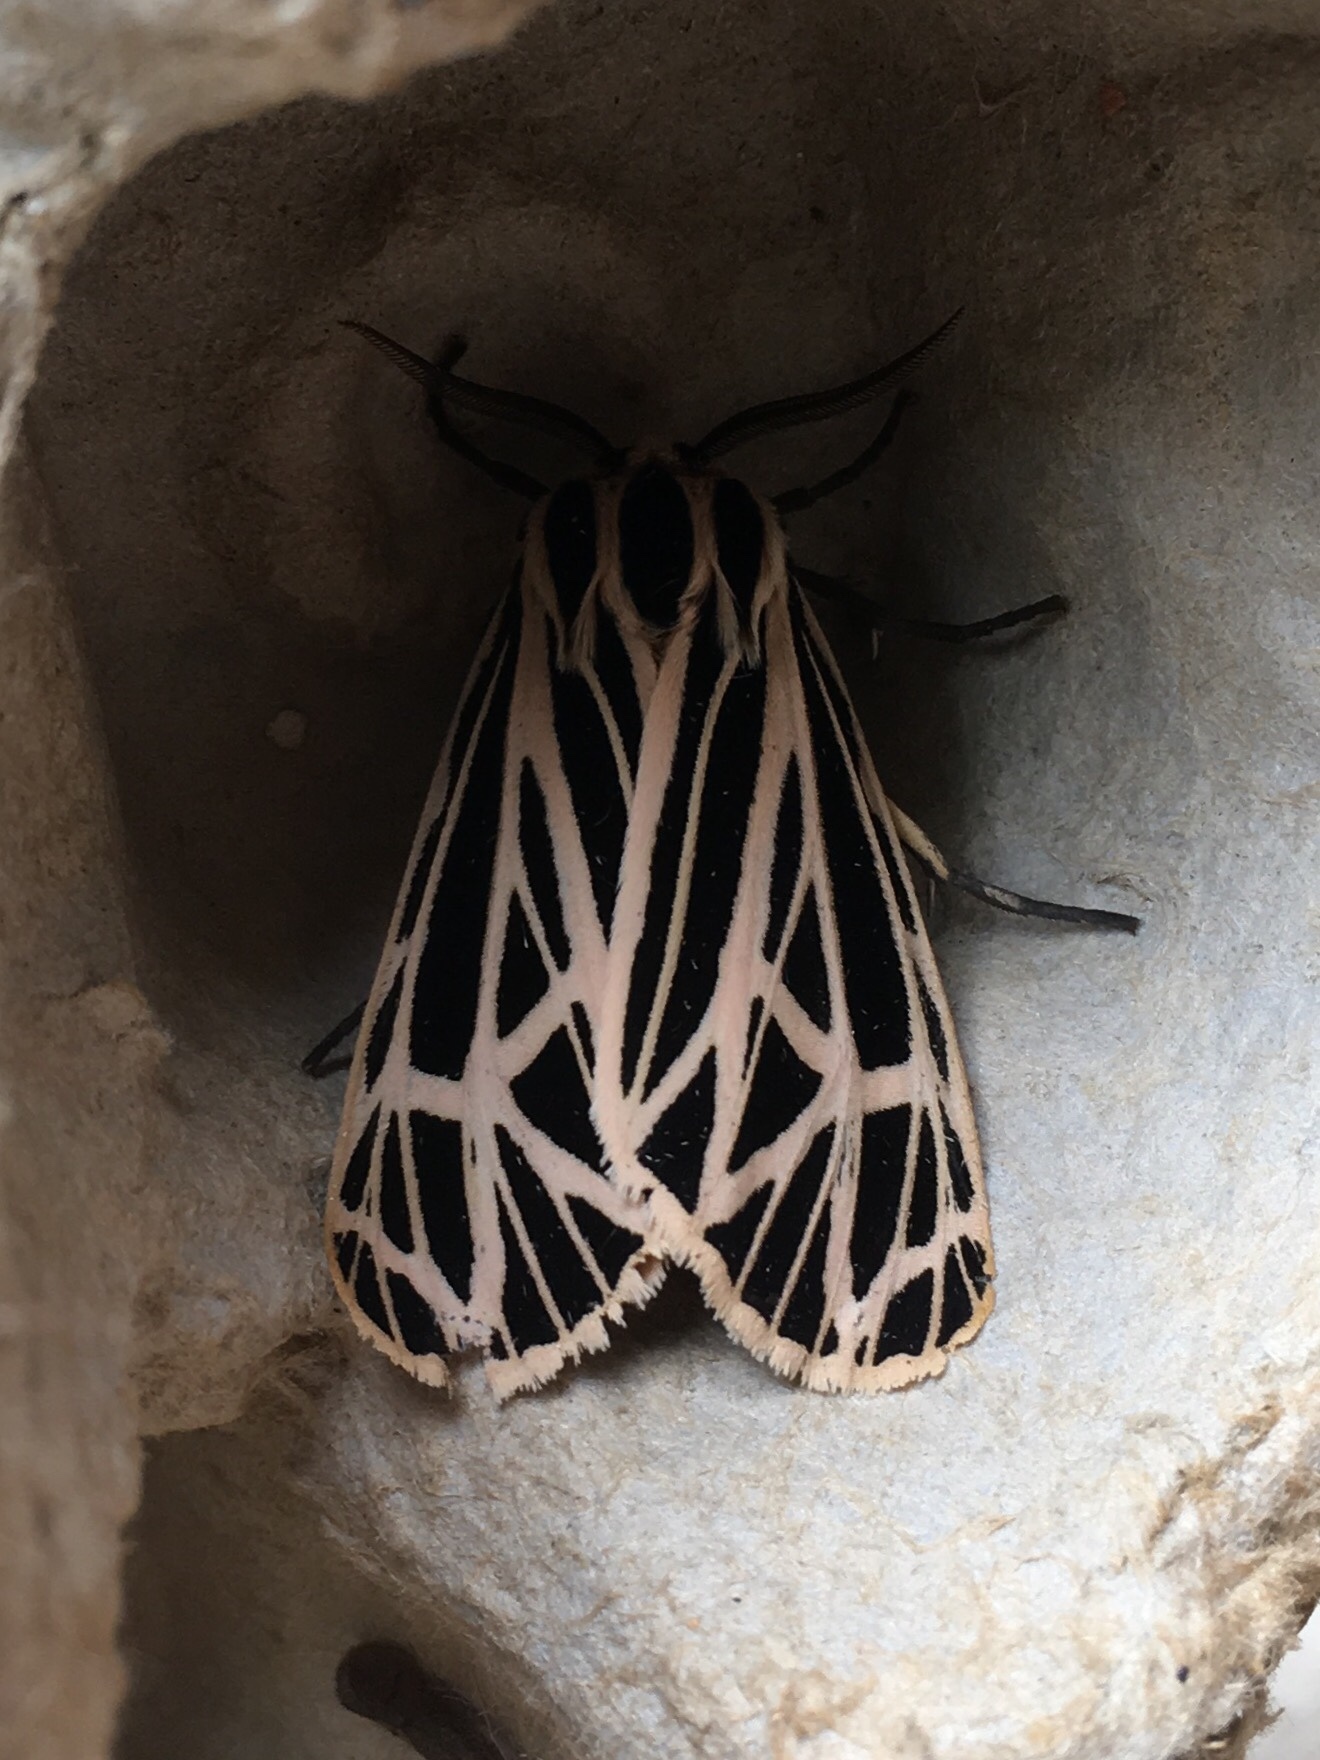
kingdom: Animalia
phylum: Arthropoda
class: Insecta
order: Lepidoptera
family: Erebidae
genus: Grammia
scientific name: Grammia virgo
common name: Virgin tiger moth
